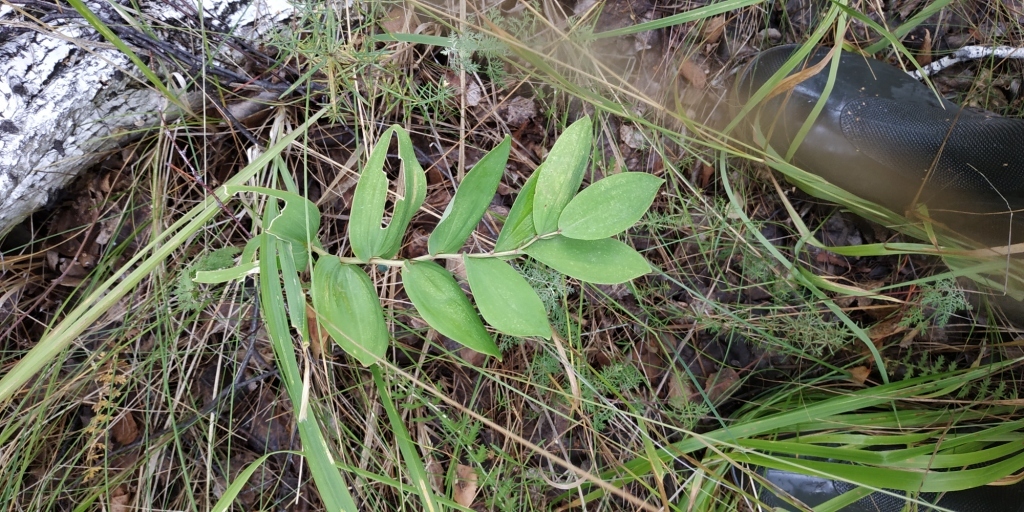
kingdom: Plantae
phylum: Tracheophyta
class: Liliopsida
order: Asparagales
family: Asparagaceae
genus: Polygonatum
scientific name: Polygonatum odoratum
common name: Angular solomon's-seal
